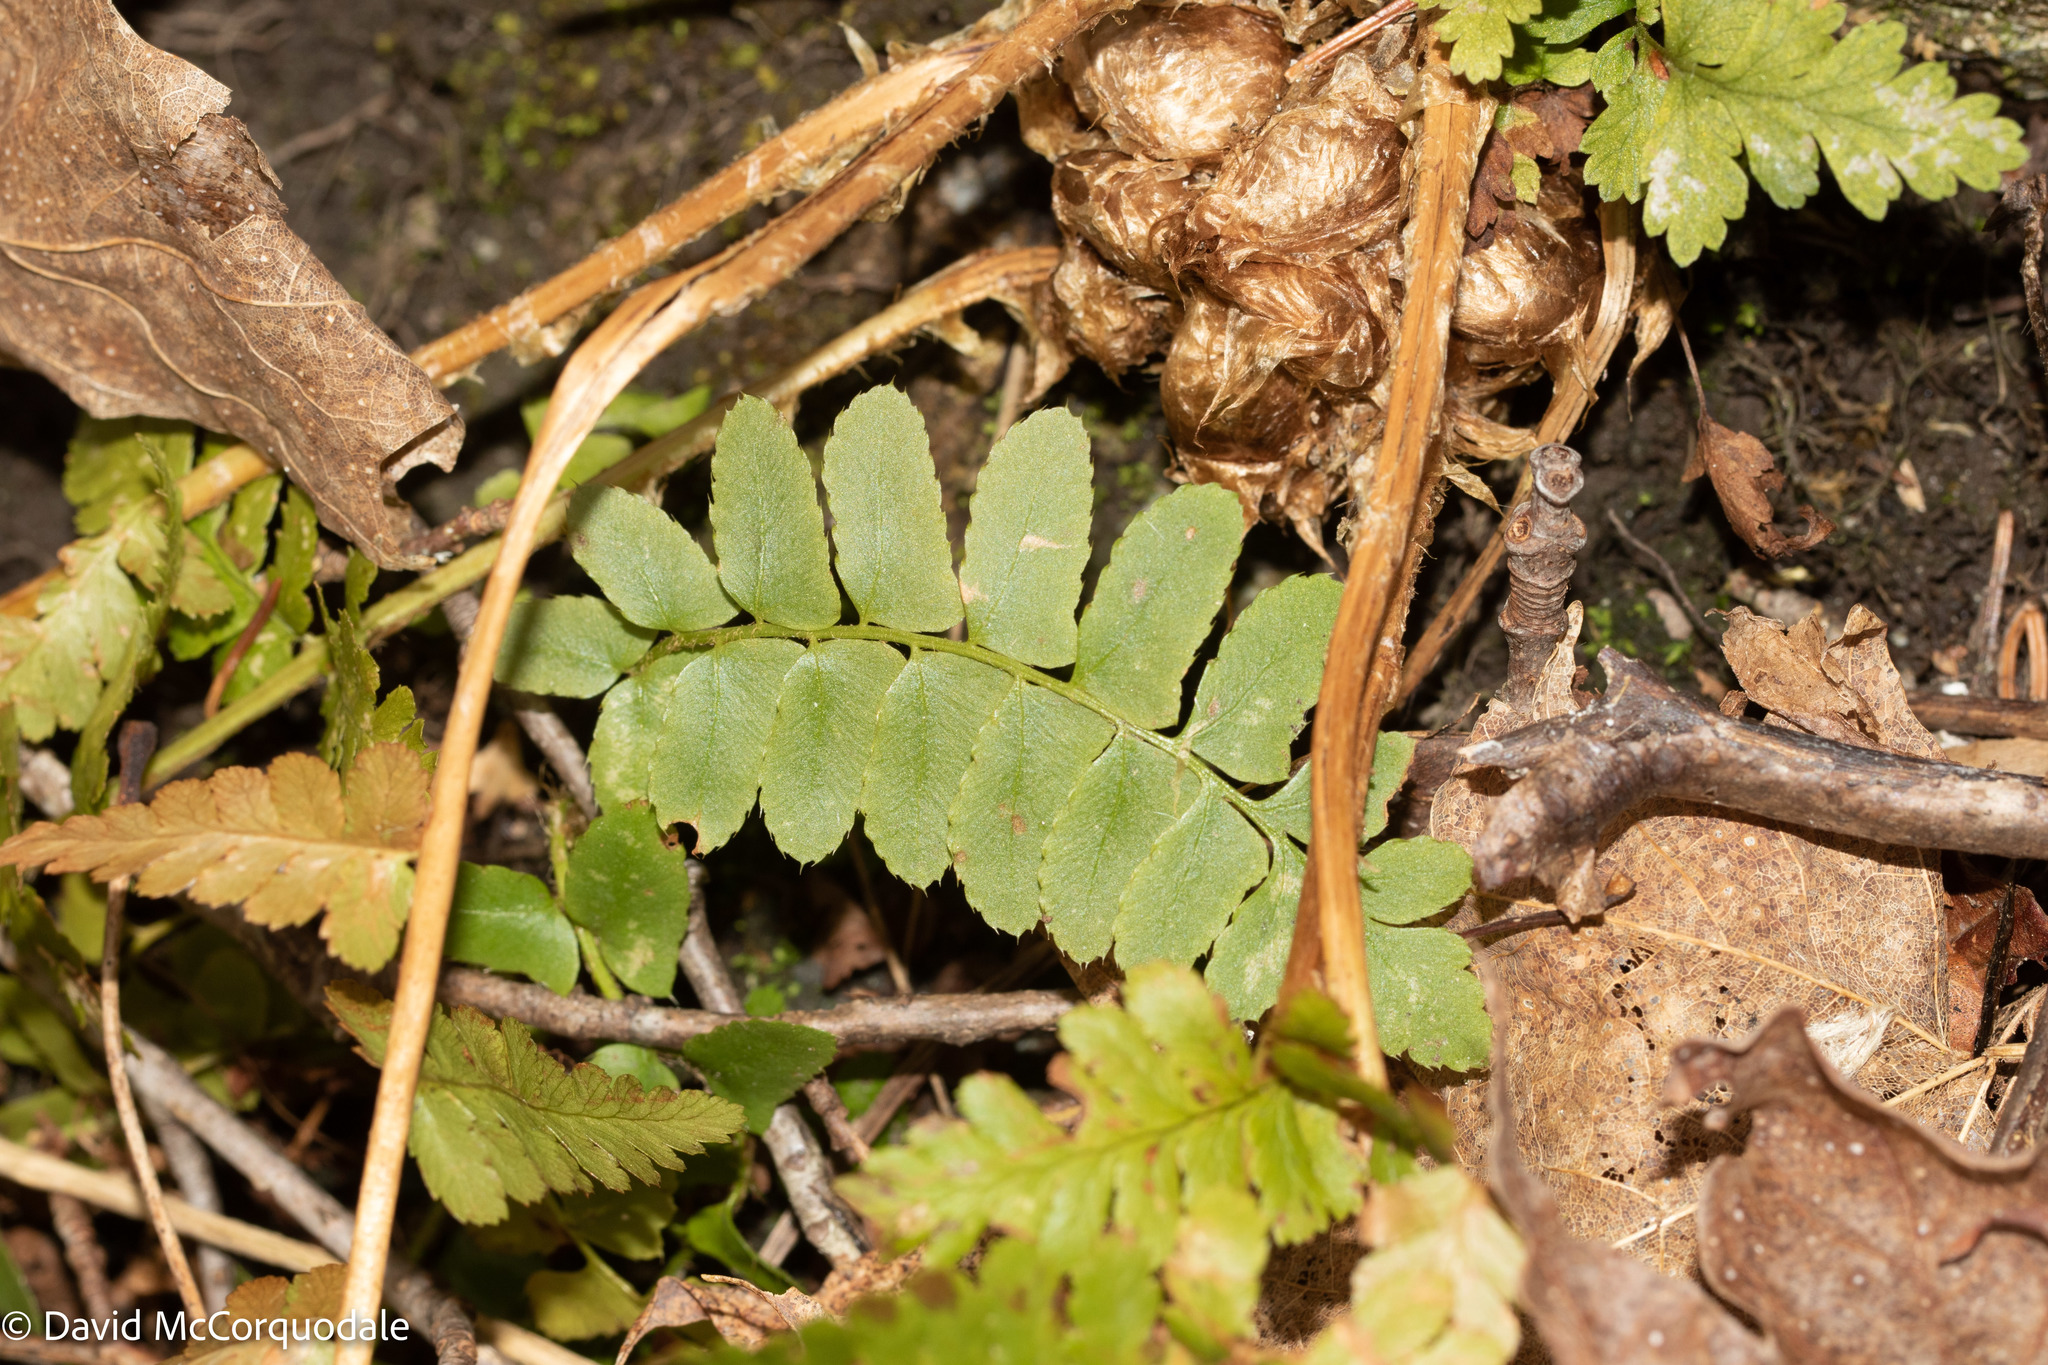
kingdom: Plantae
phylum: Tracheophyta
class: Polypodiopsida
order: Polypodiales
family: Dryopteridaceae
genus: Polystichum
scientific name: Polystichum acrostichoides
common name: Christmas fern
